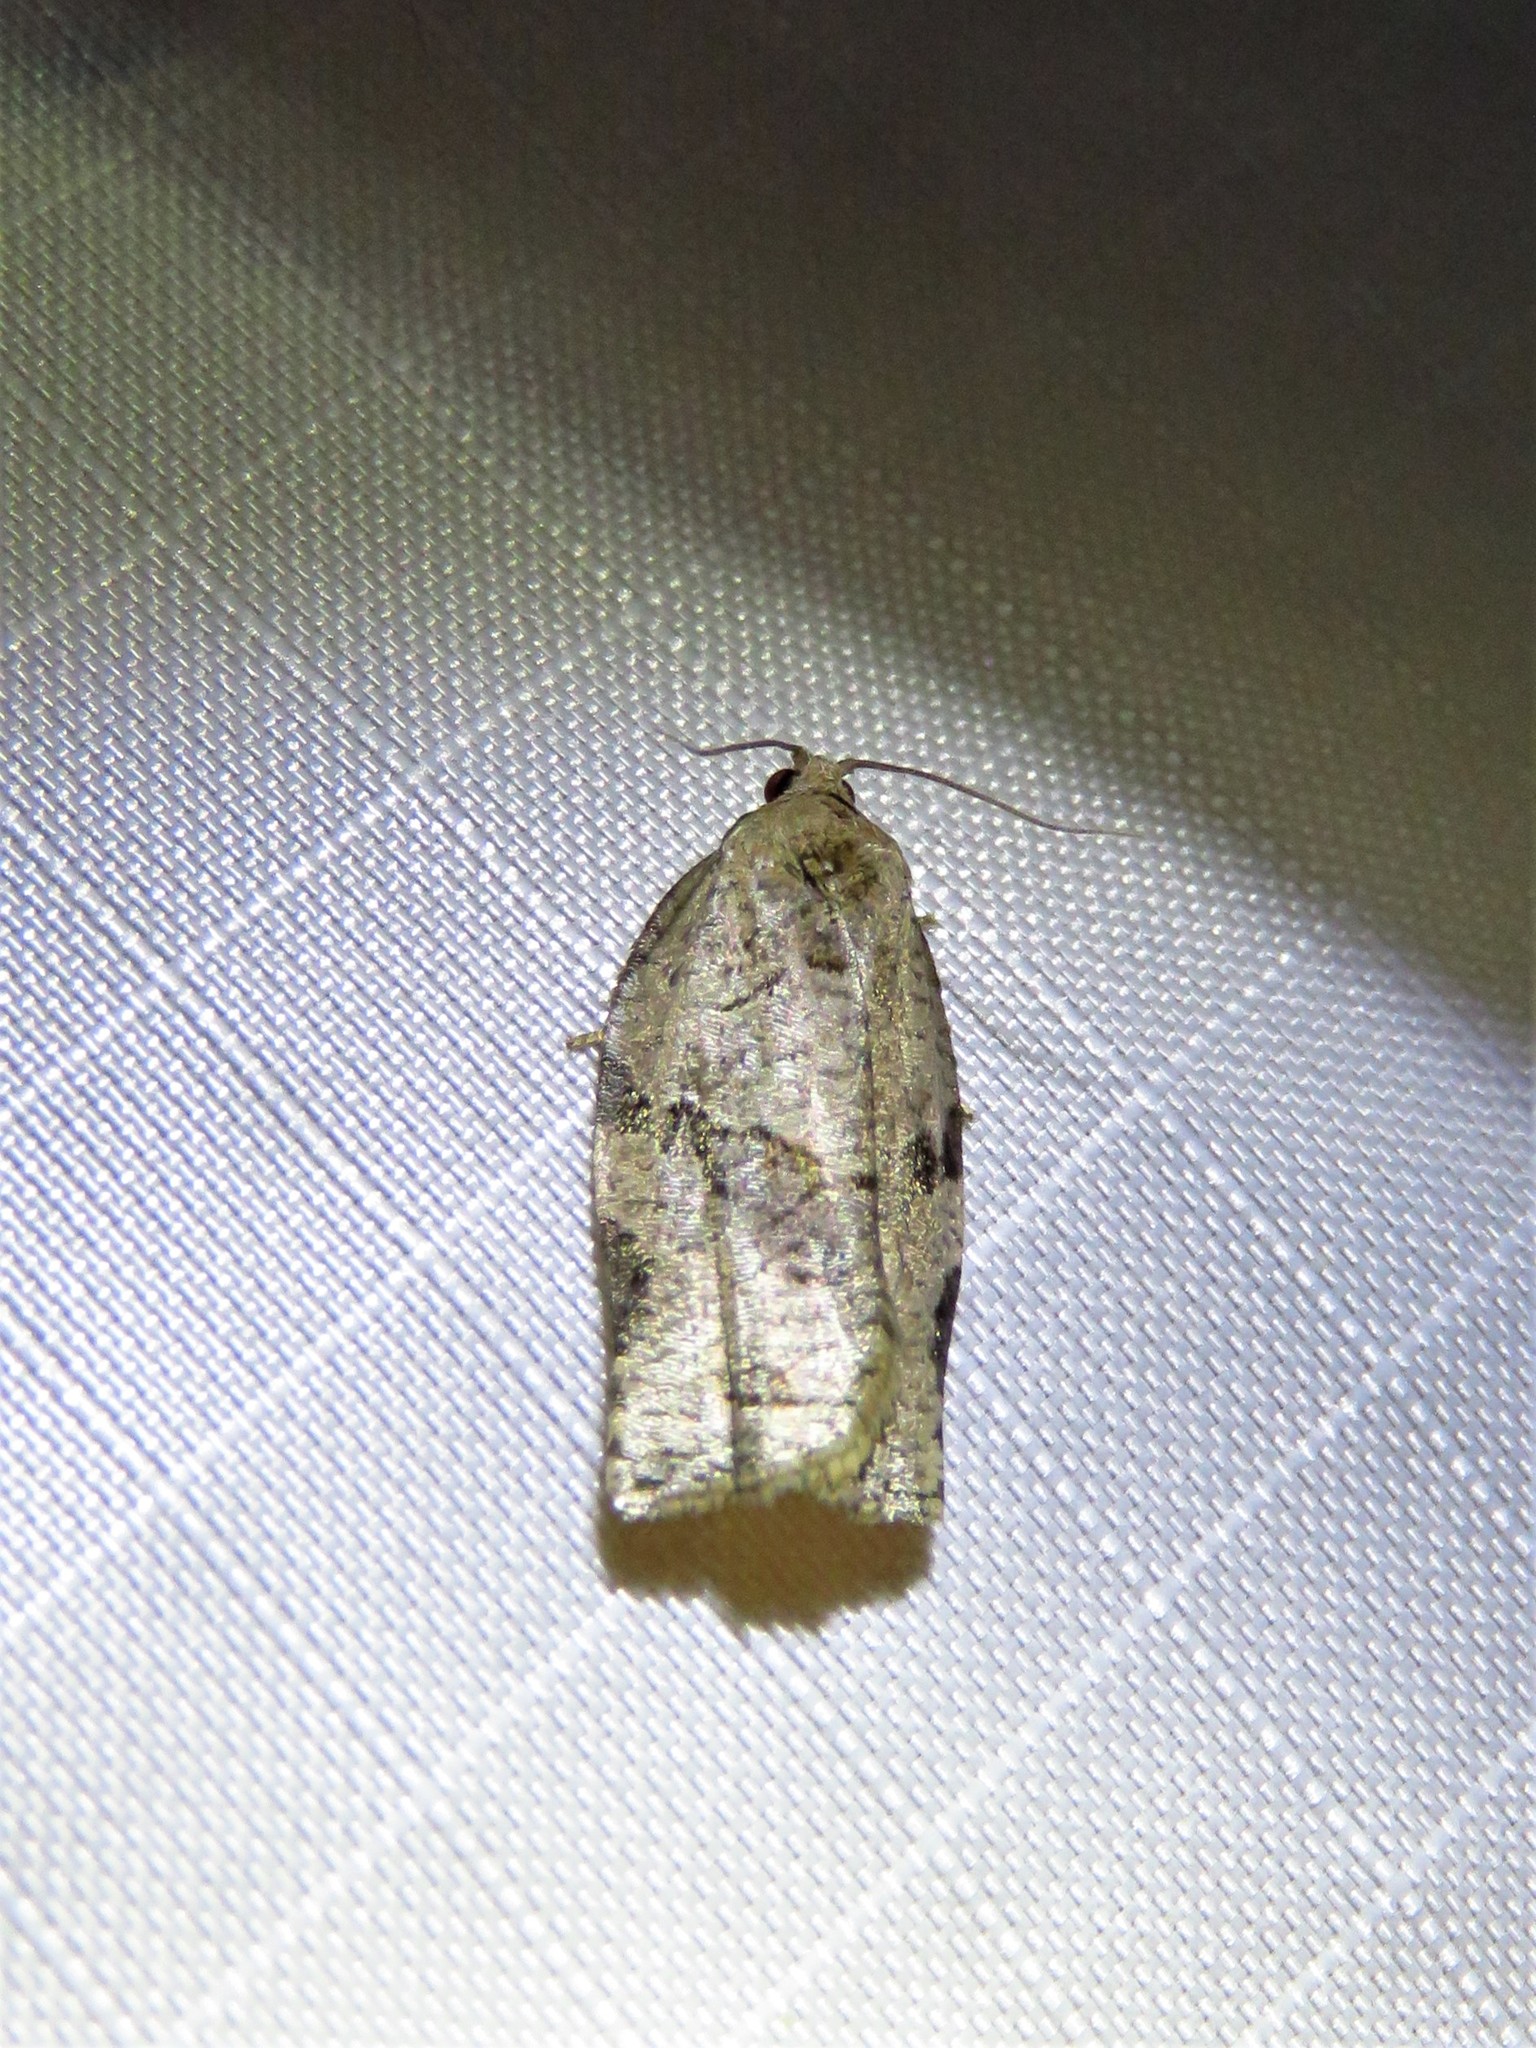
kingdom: Animalia
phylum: Arthropoda
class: Insecta
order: Lepidoptera
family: Tortricidae
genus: Archips
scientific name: Archips grisea
